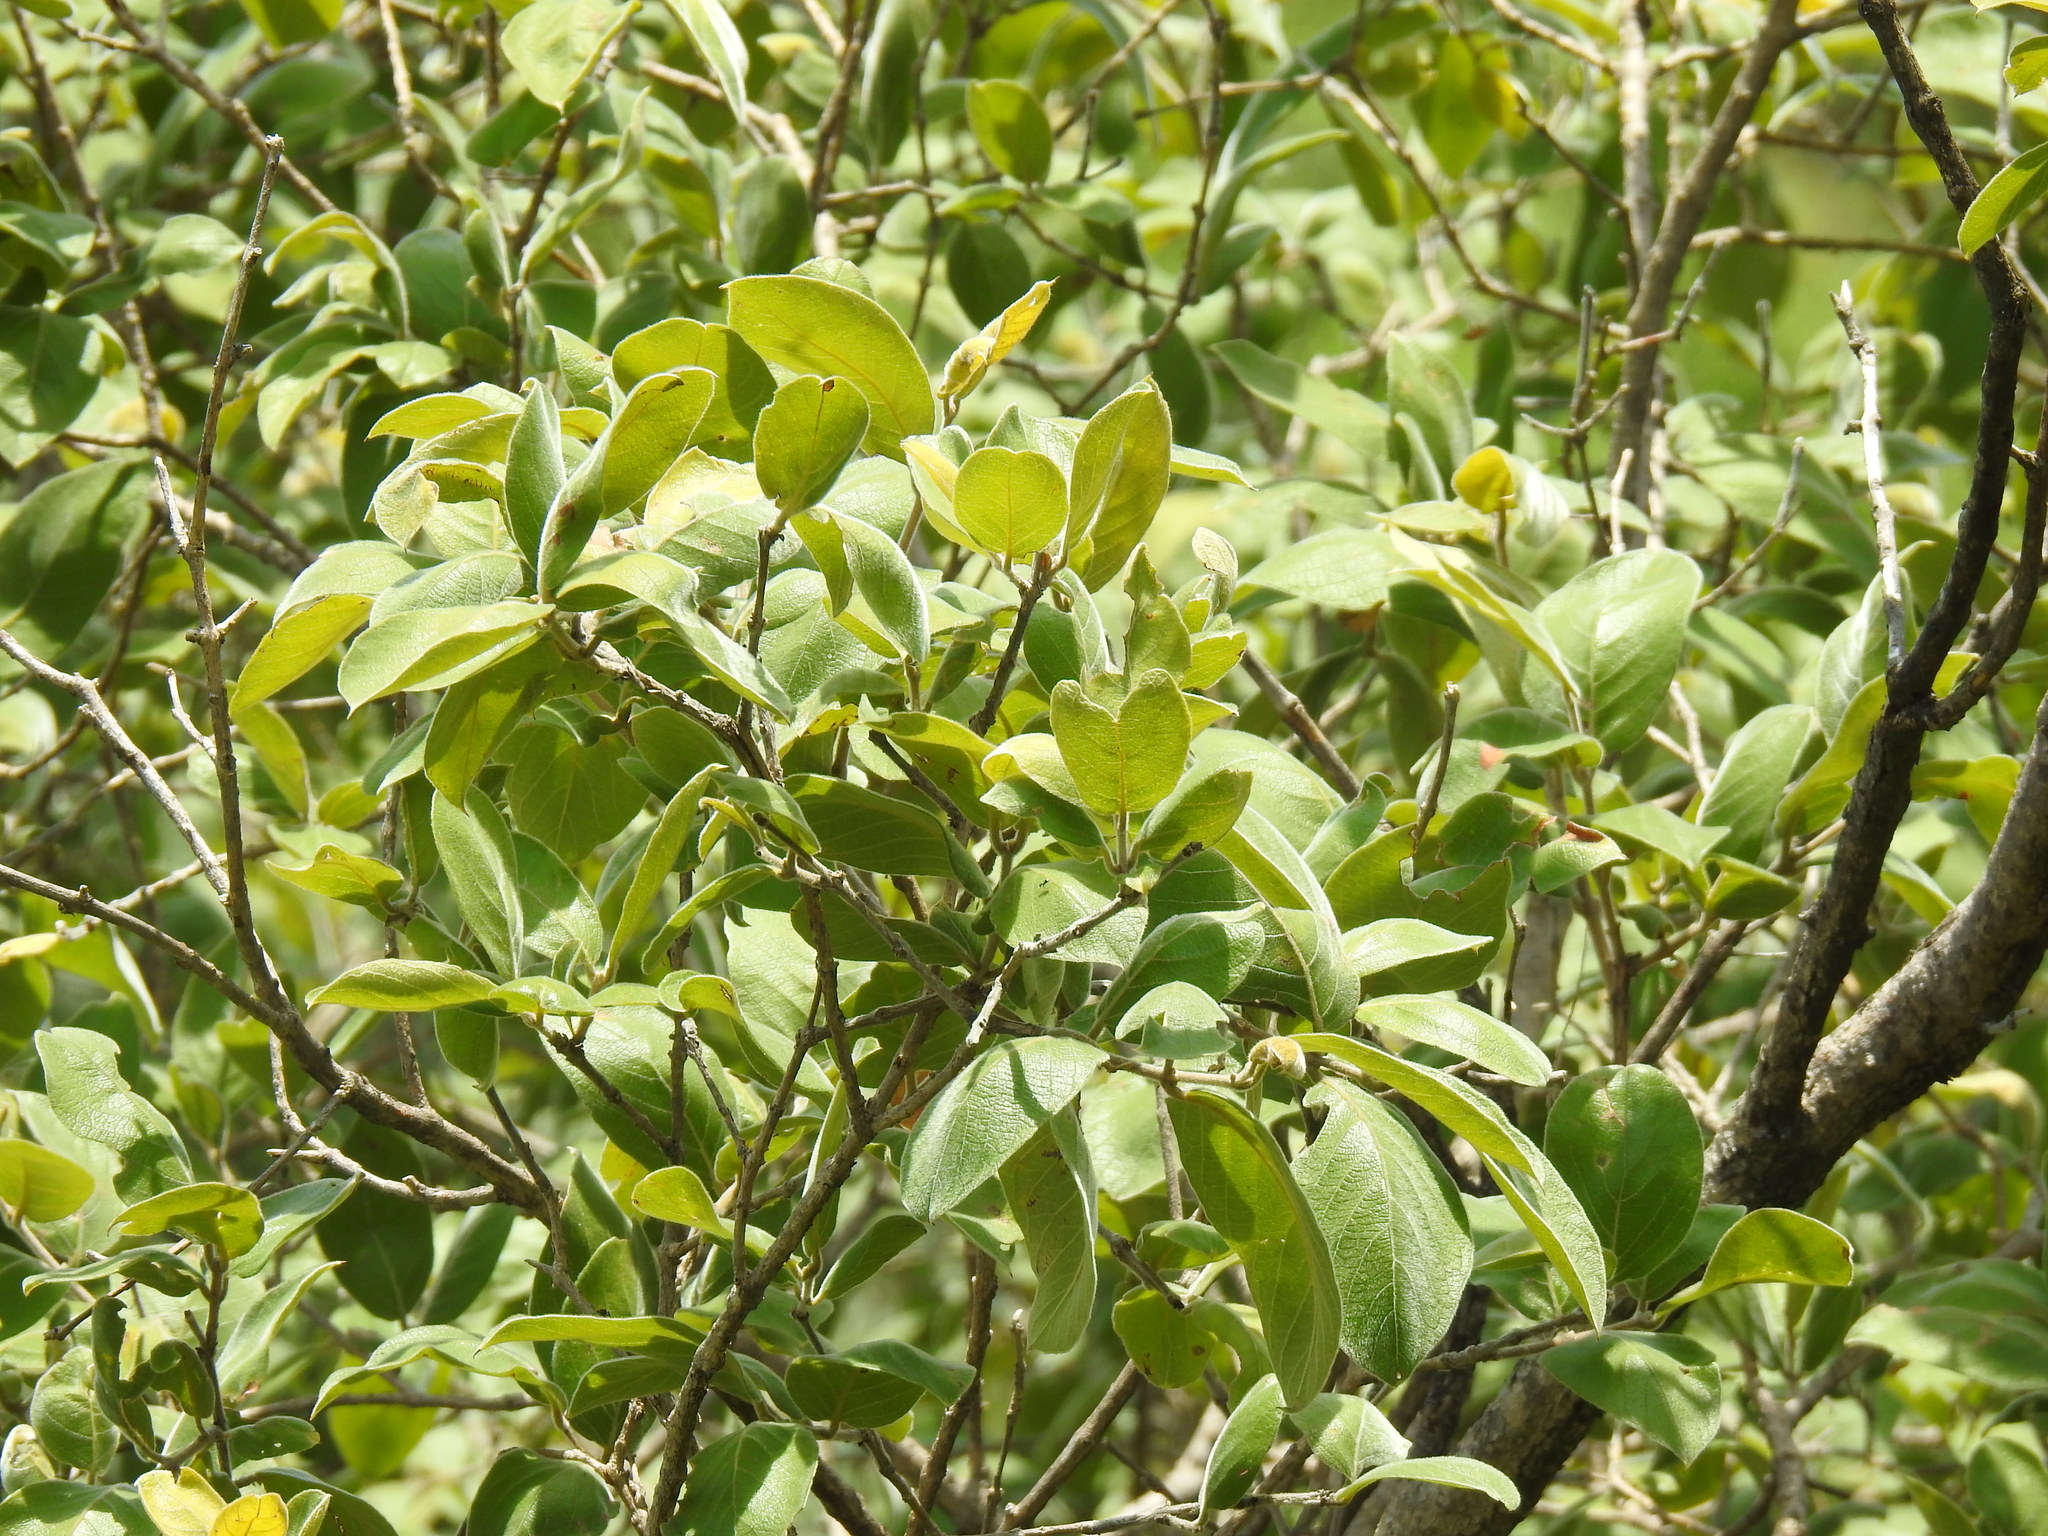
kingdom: Plantae
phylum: Tracheophyta
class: Magnoliopsida
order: Myrtales
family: Combretaceae
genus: Combretum
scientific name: Combretum molle
